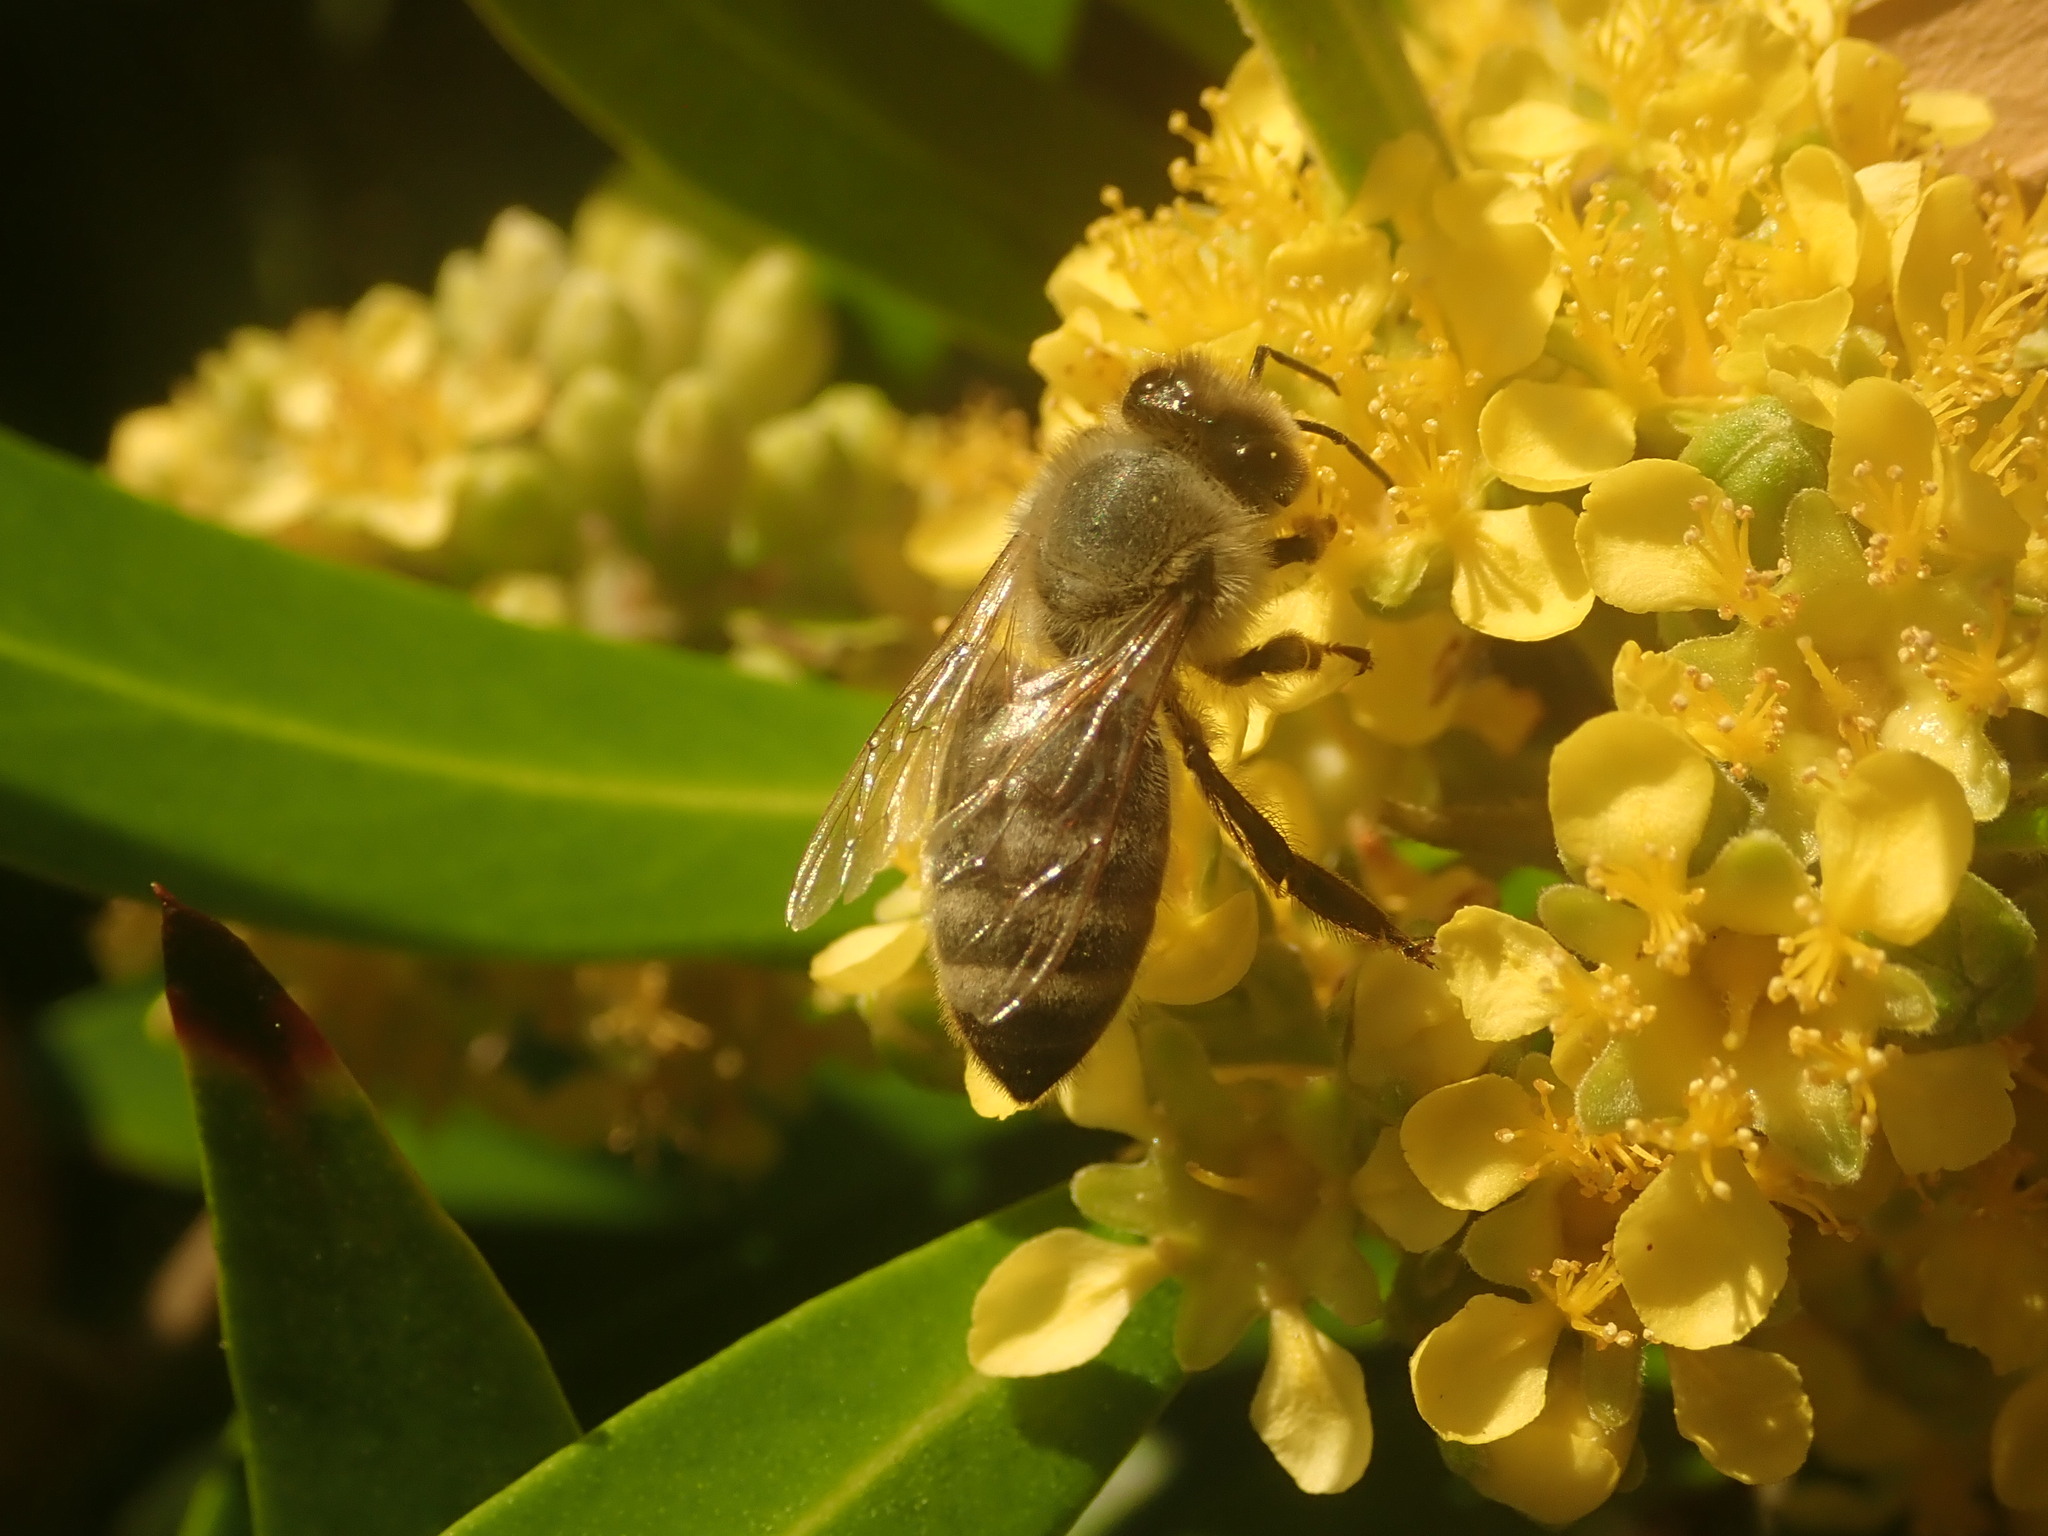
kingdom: Animalia
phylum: Arthropoda
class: Insecta
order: Hymenoptera
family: Apidae
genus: Apis
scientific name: Apis mellifera
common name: Honey bee
